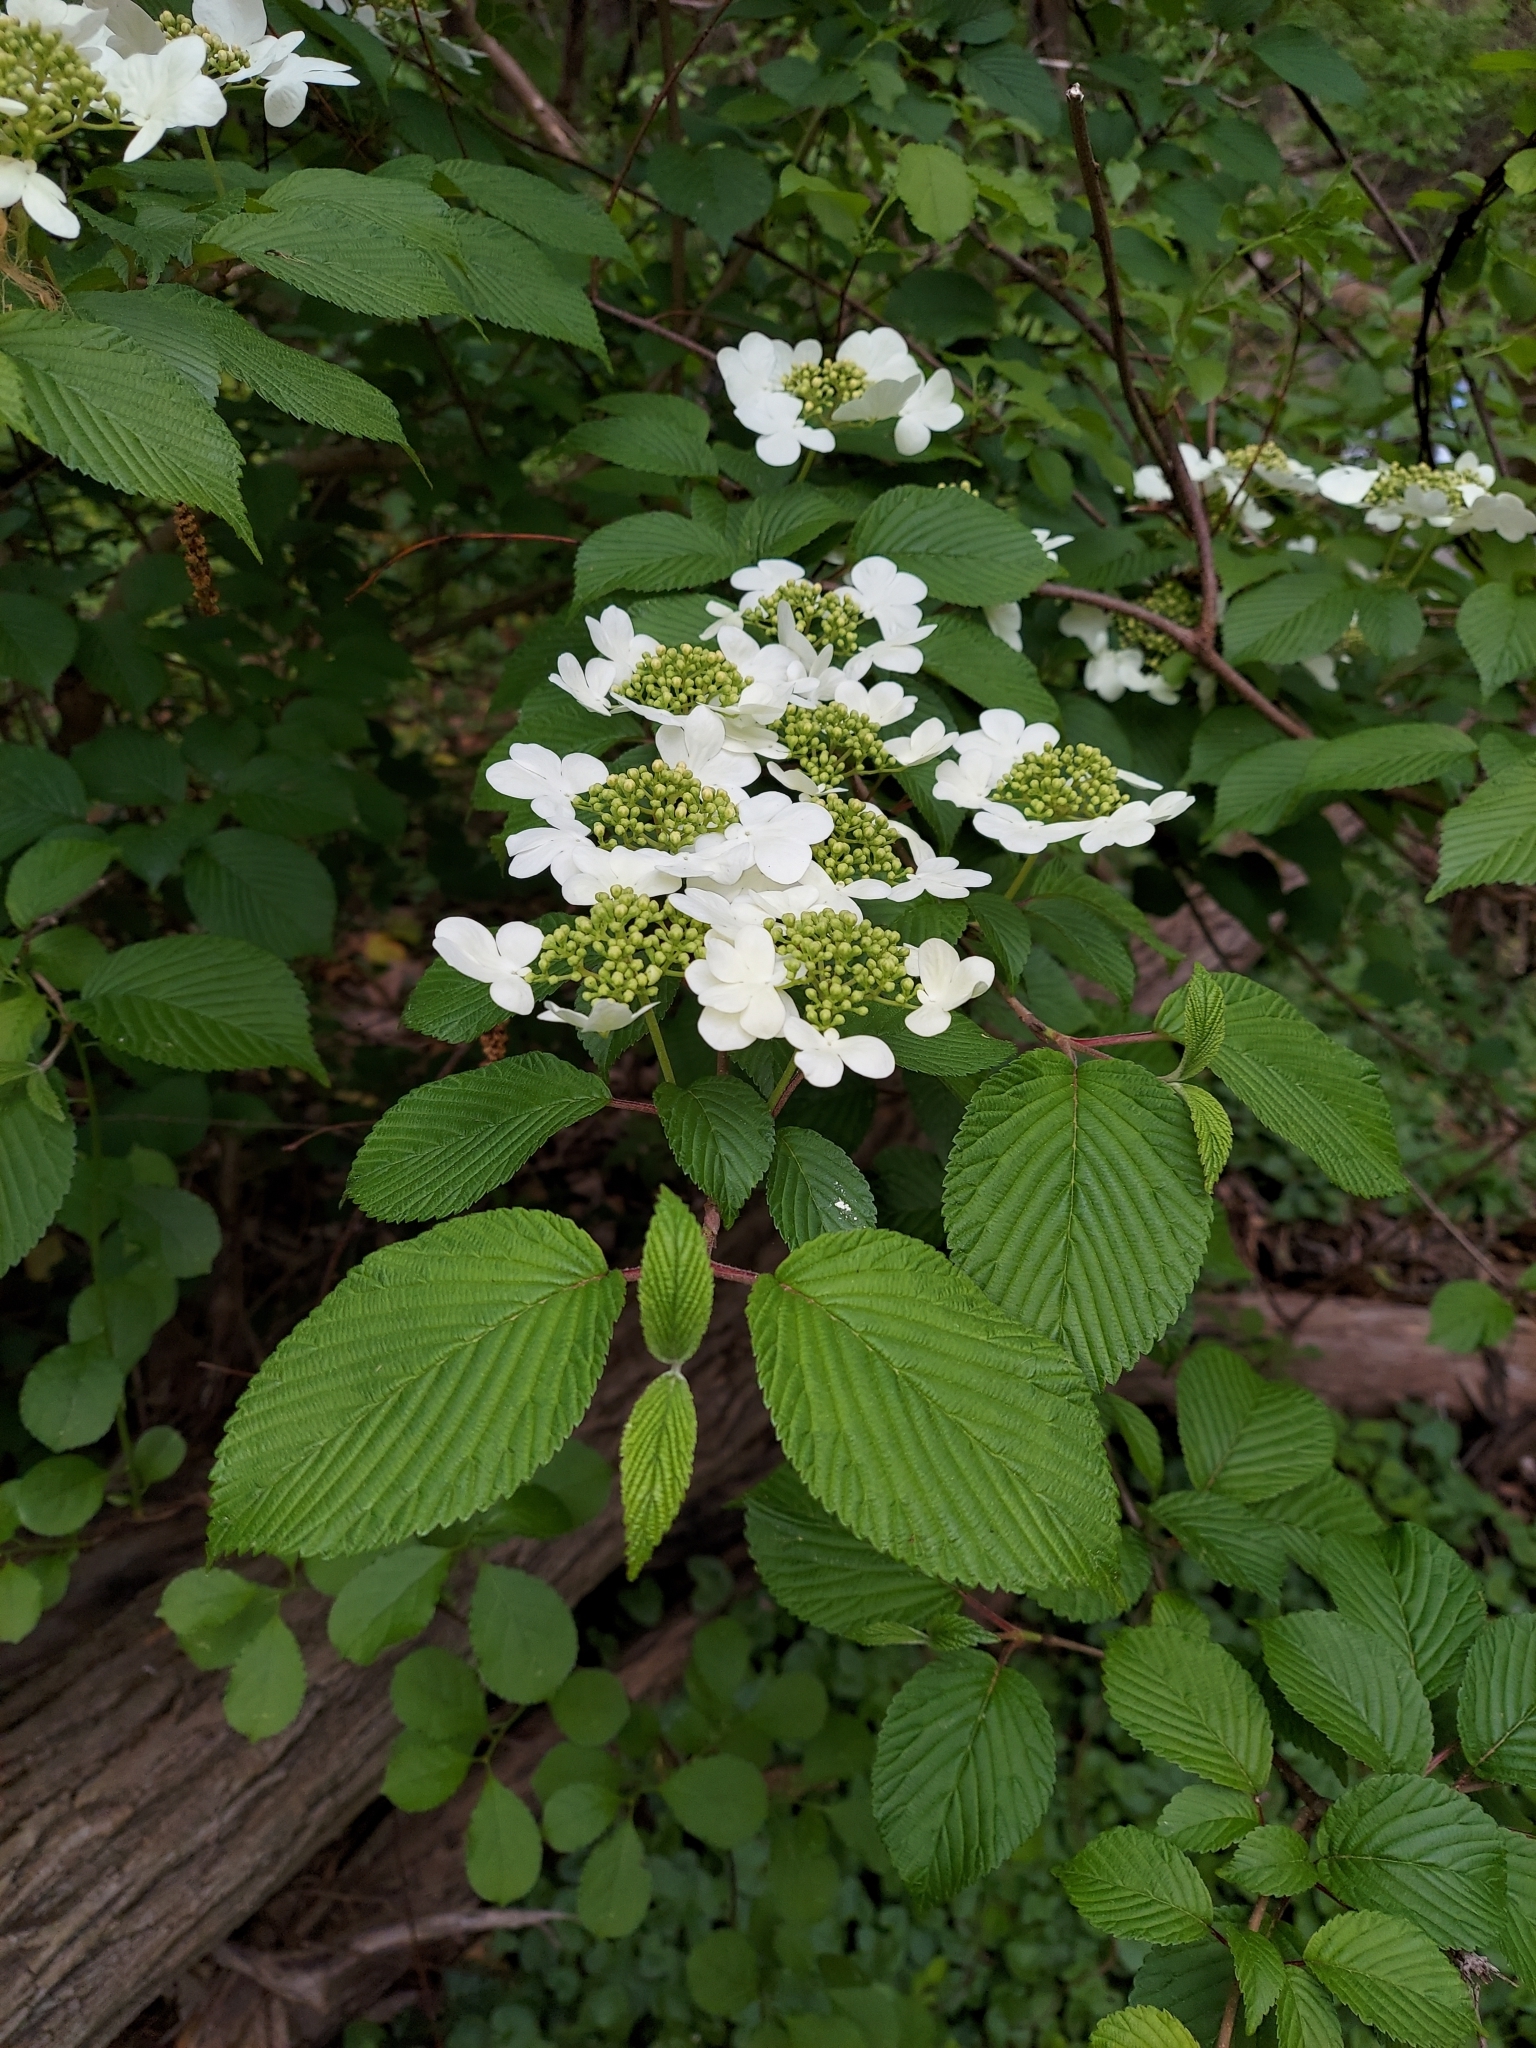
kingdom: Plantae
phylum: Tracheophyta
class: Magnoliopsida
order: Dipsacales
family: Viburnaceae
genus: Viburnum
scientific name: Viburnum plicatum
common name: Japanese snowball
